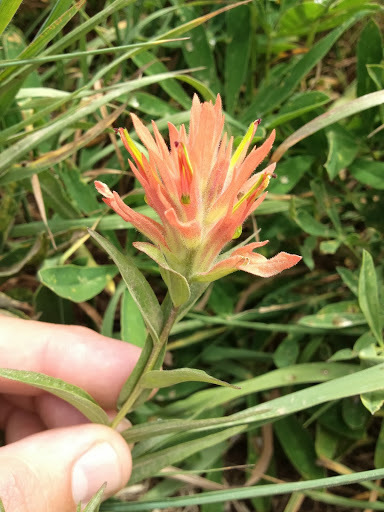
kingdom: Plantae
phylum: Tracheophyta
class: Magnoliopsida
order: Lamiales
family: Orobanchaceae
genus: Castilleja
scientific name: Castilleja miniata
